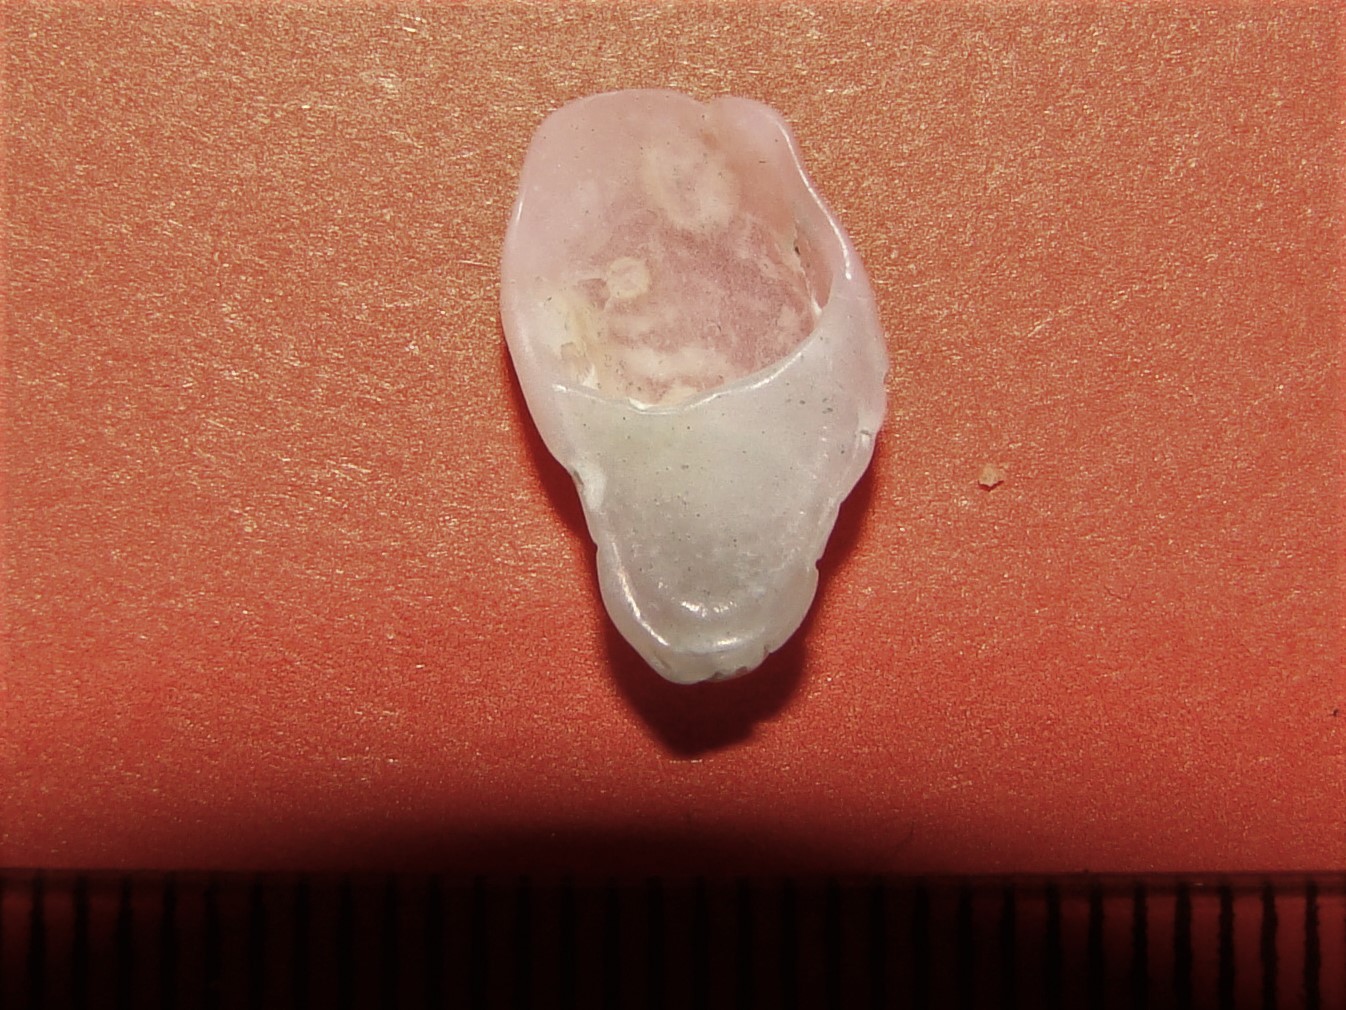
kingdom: Animalia
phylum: Mollusca
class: Gastropoda
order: Littorinimorpha
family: Calyptraeidae
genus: Maoricrypta
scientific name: Maoricrypta monoxyla
